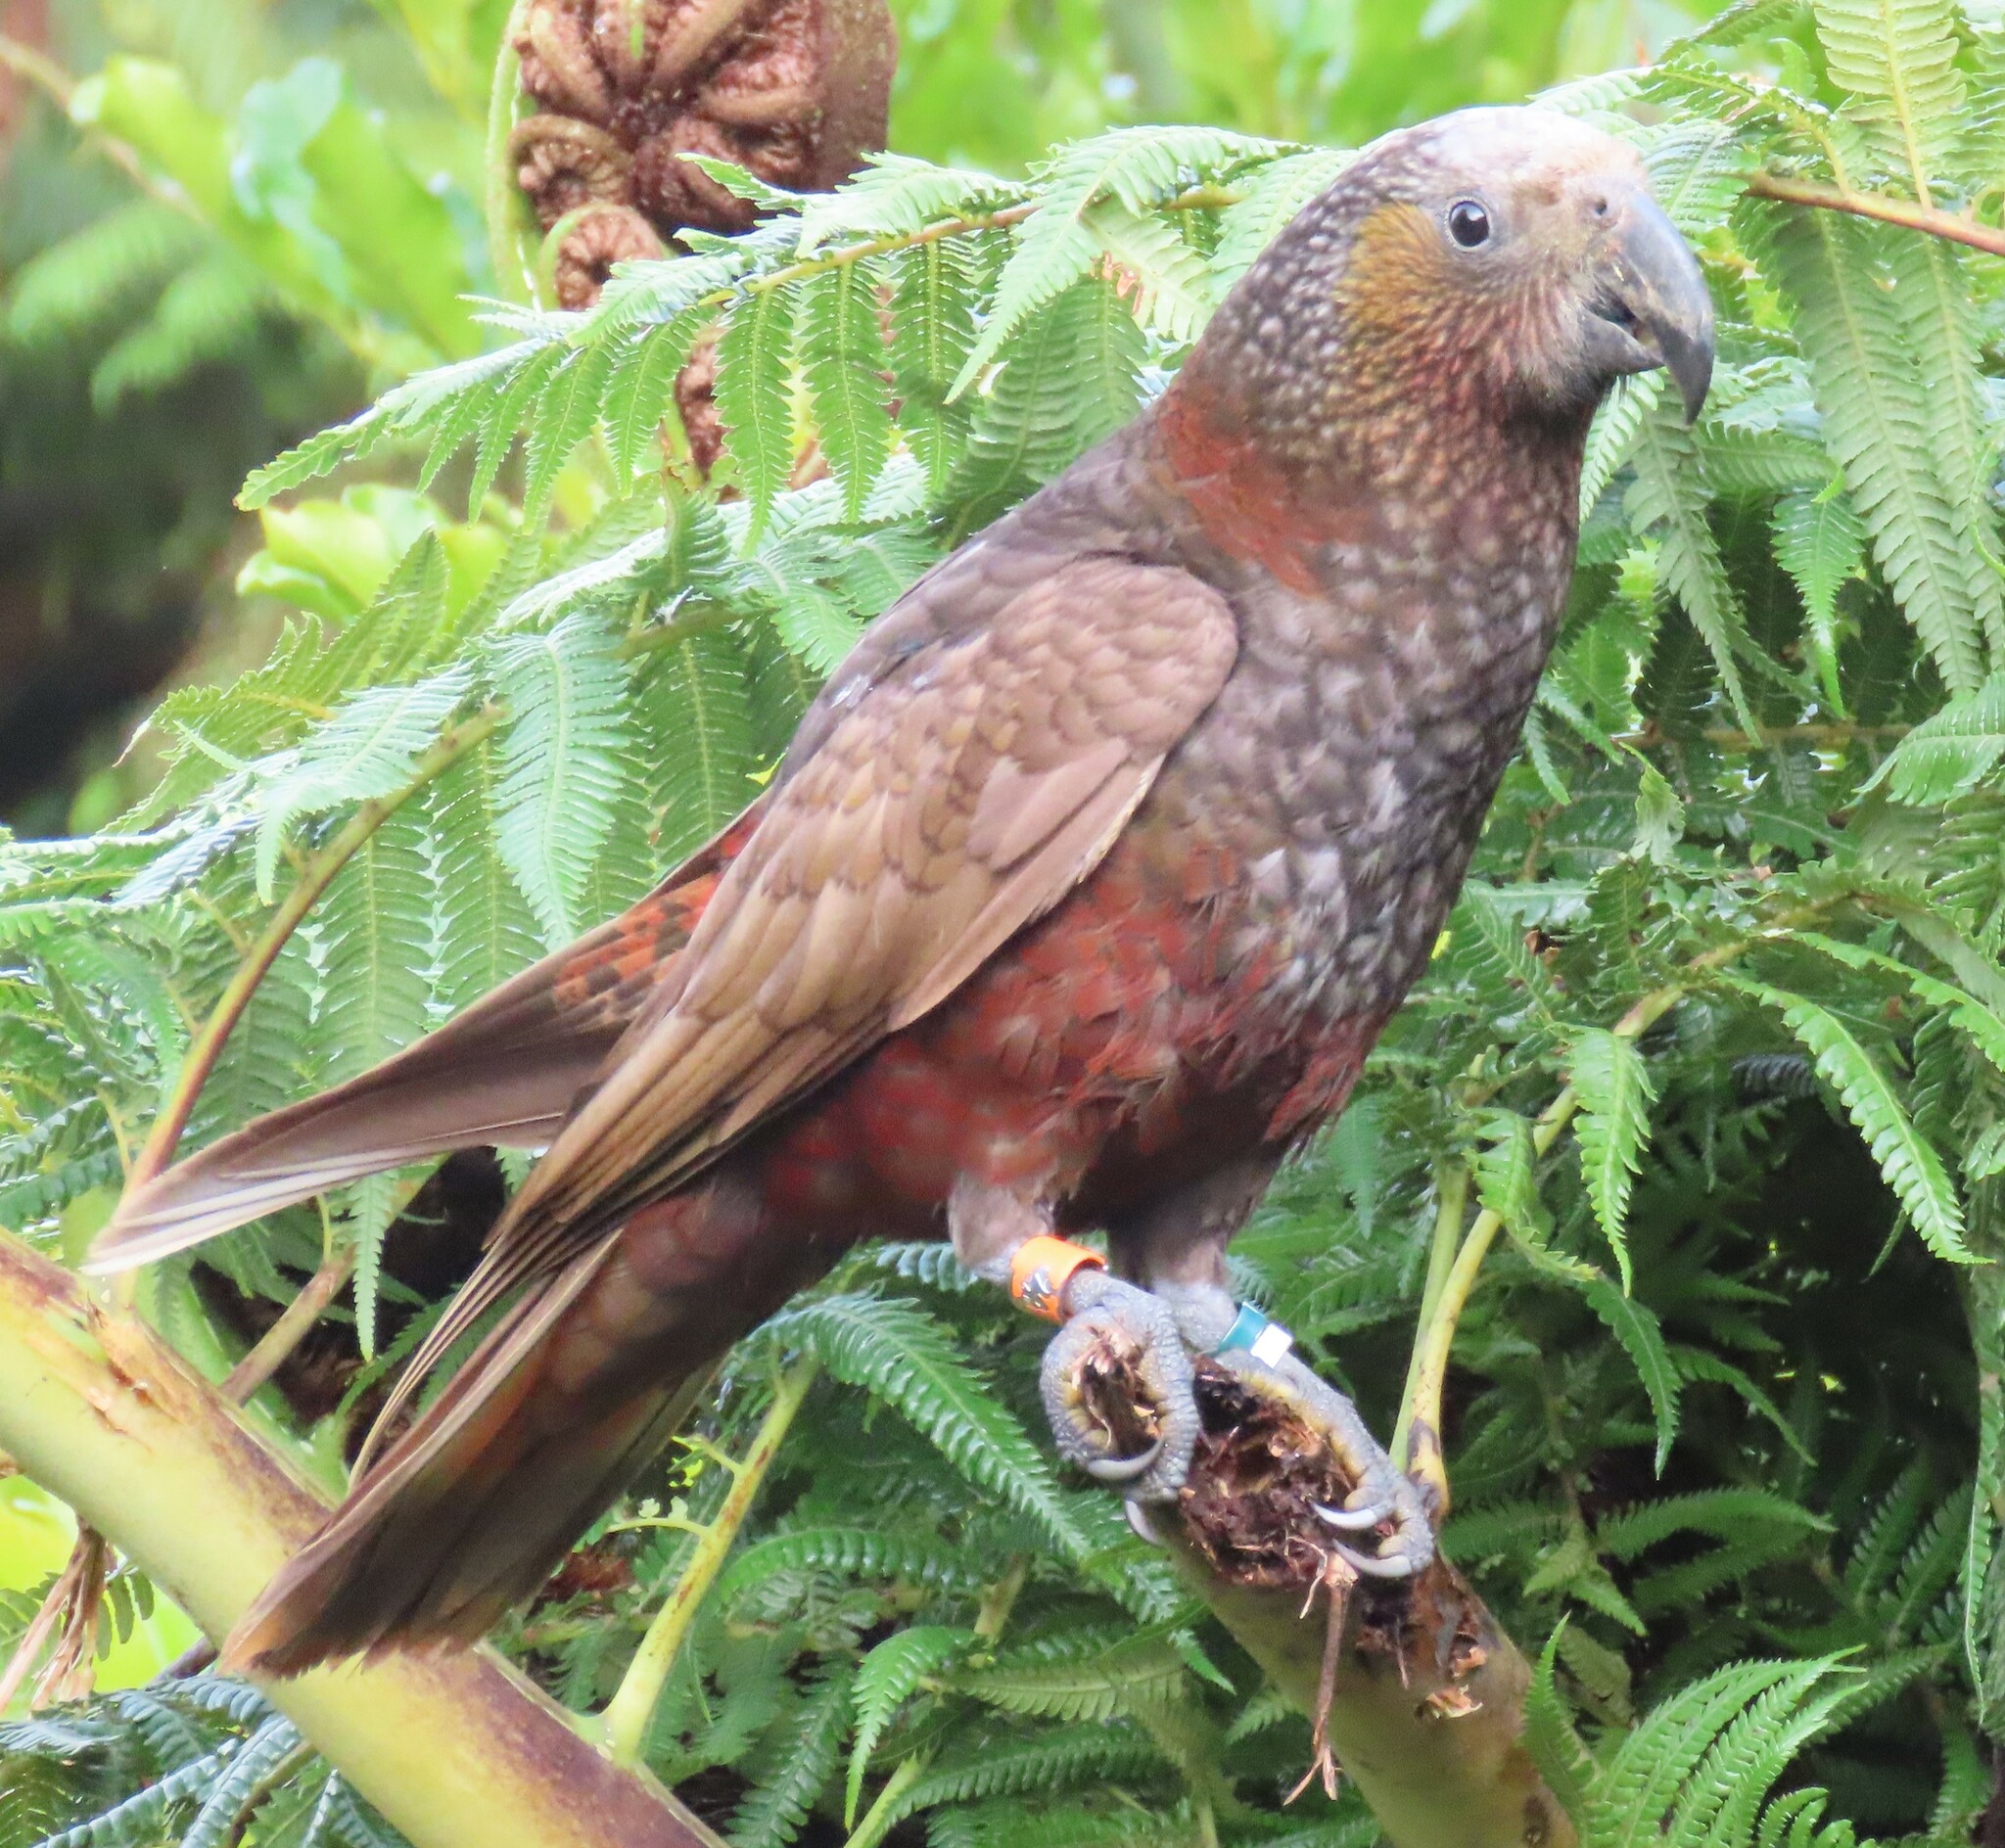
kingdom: Animalia
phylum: Chordata
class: Aves
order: Psittaciformes
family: Psittacidae
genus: Nestor
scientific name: Nestor meridionalis
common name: New zealand kaka
